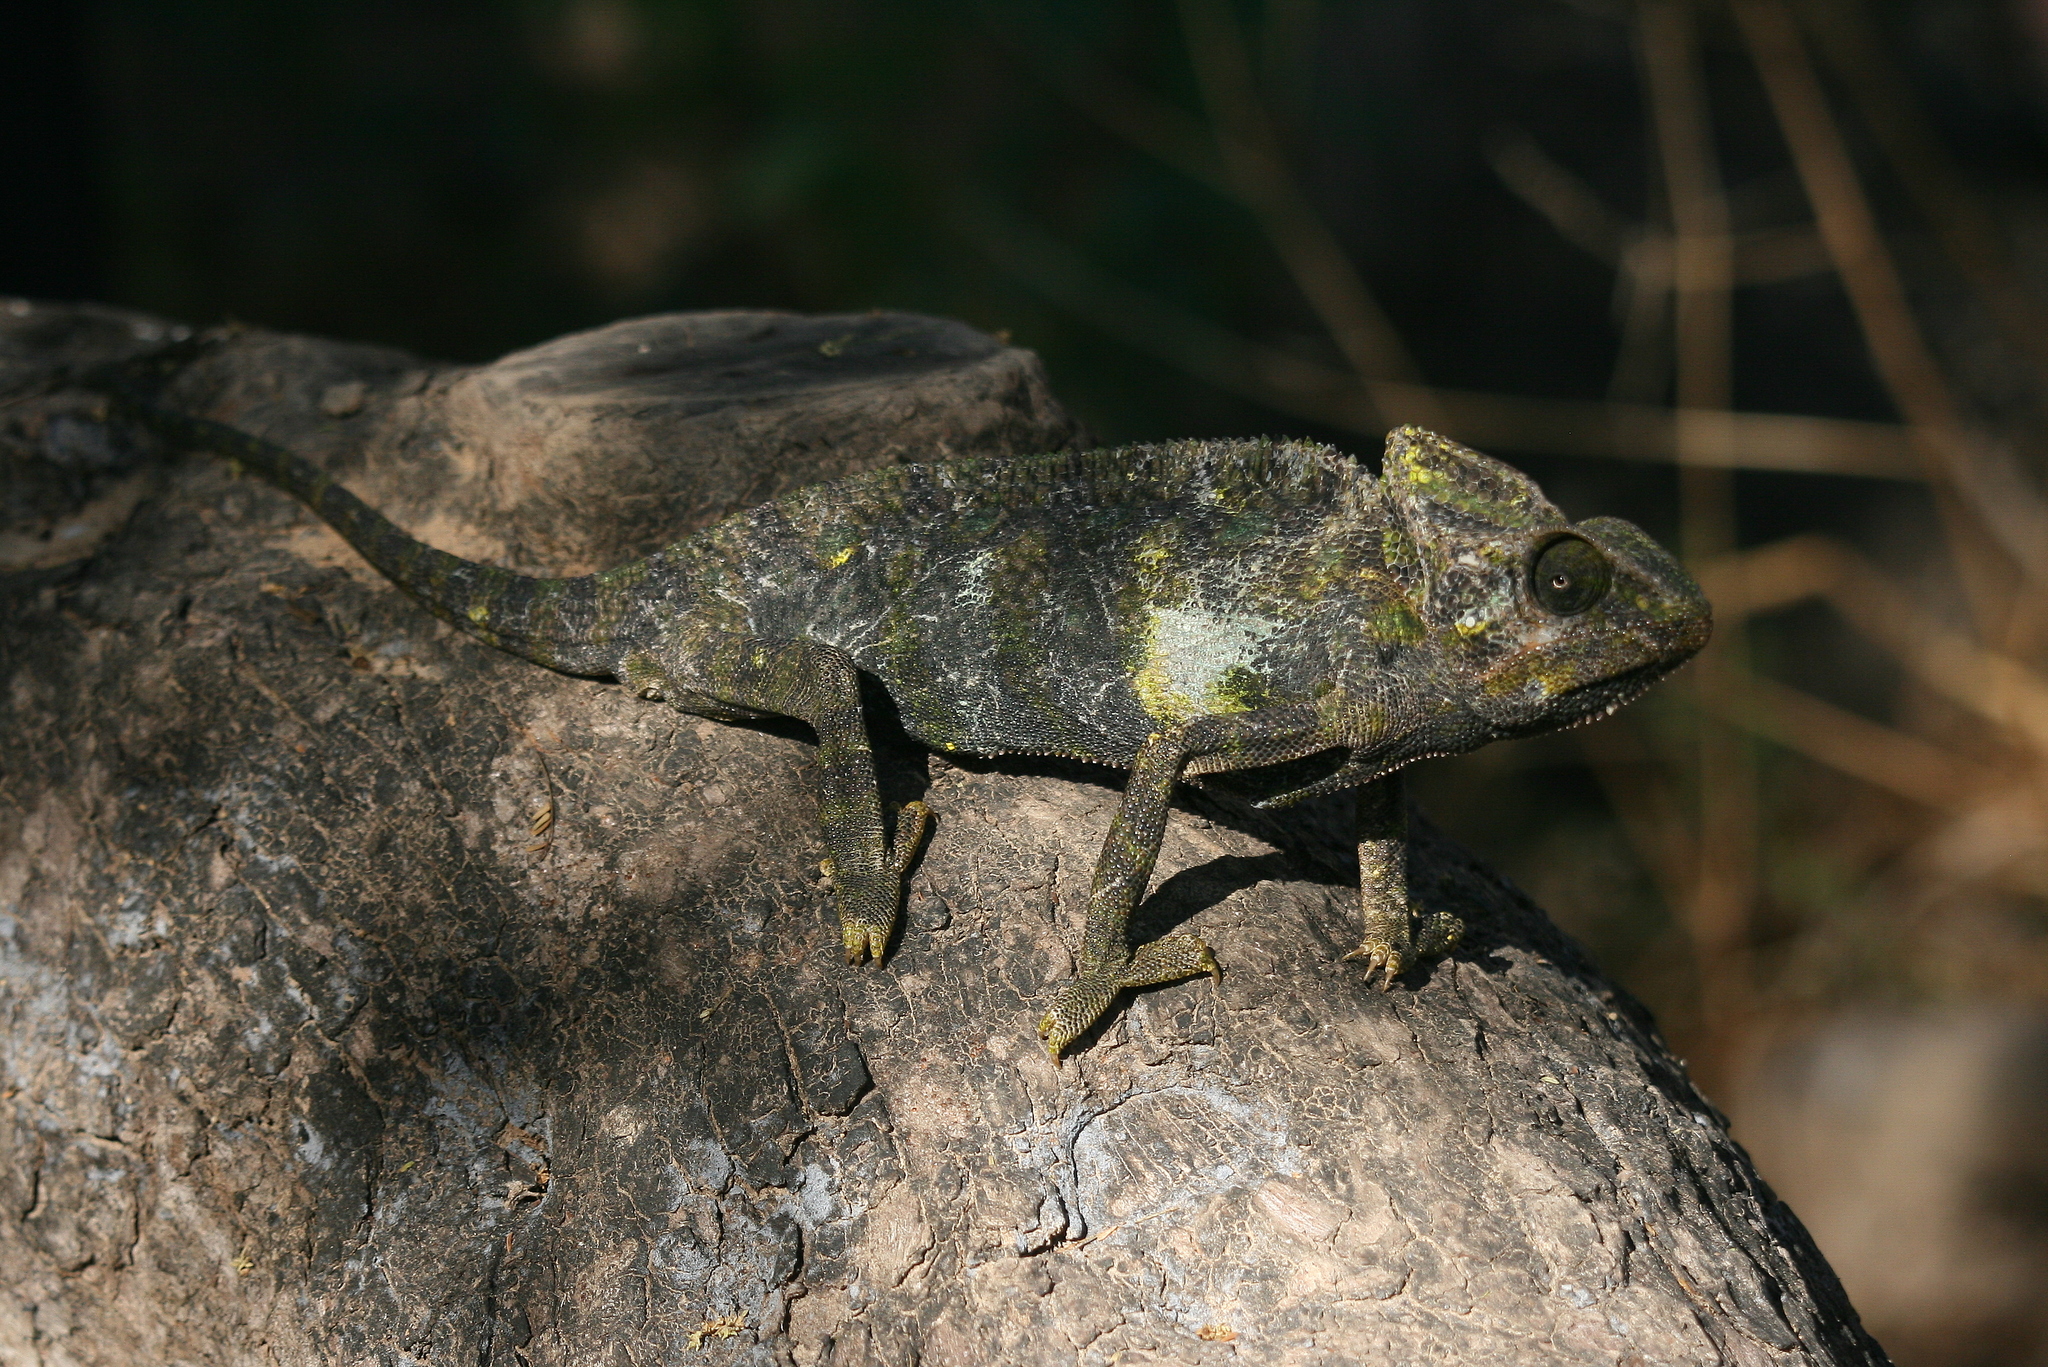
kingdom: Animalia
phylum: Chordata
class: Squamata
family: Chamaeleonidae
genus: Chamaeleo
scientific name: Chamaeleo arabicus
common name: Arabian chameleon
